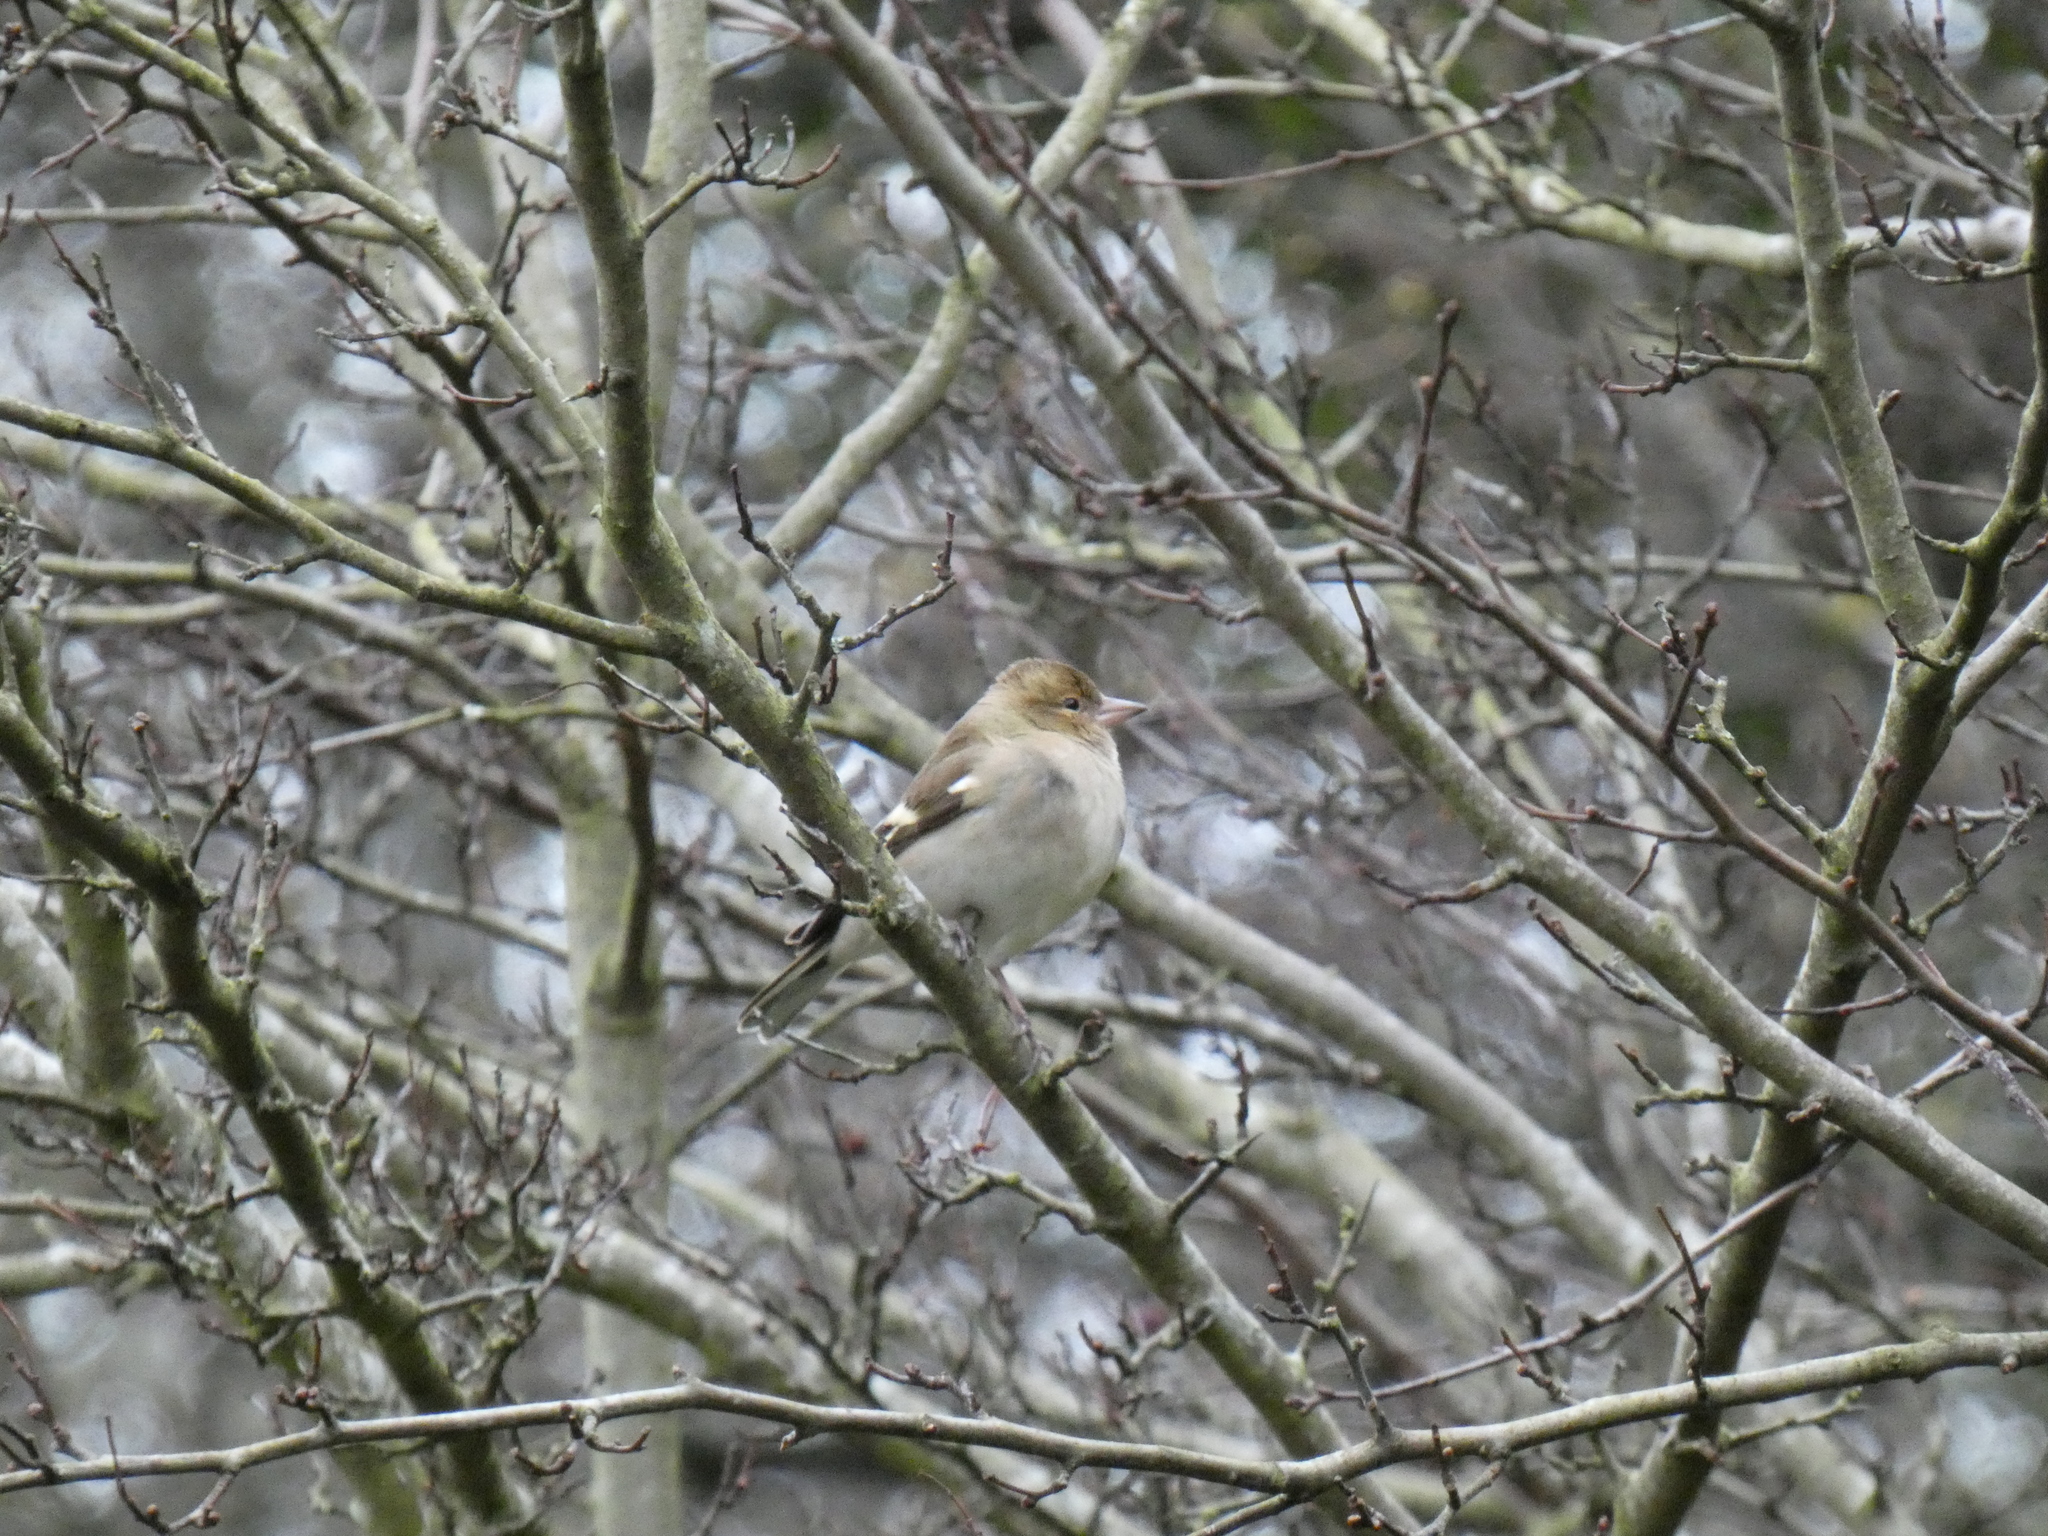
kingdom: Animalia
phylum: Chordata
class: Aves
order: Passeriformes
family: Fringillidae
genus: Fringilla
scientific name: Fringilla coelebs
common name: Common chaffinch
